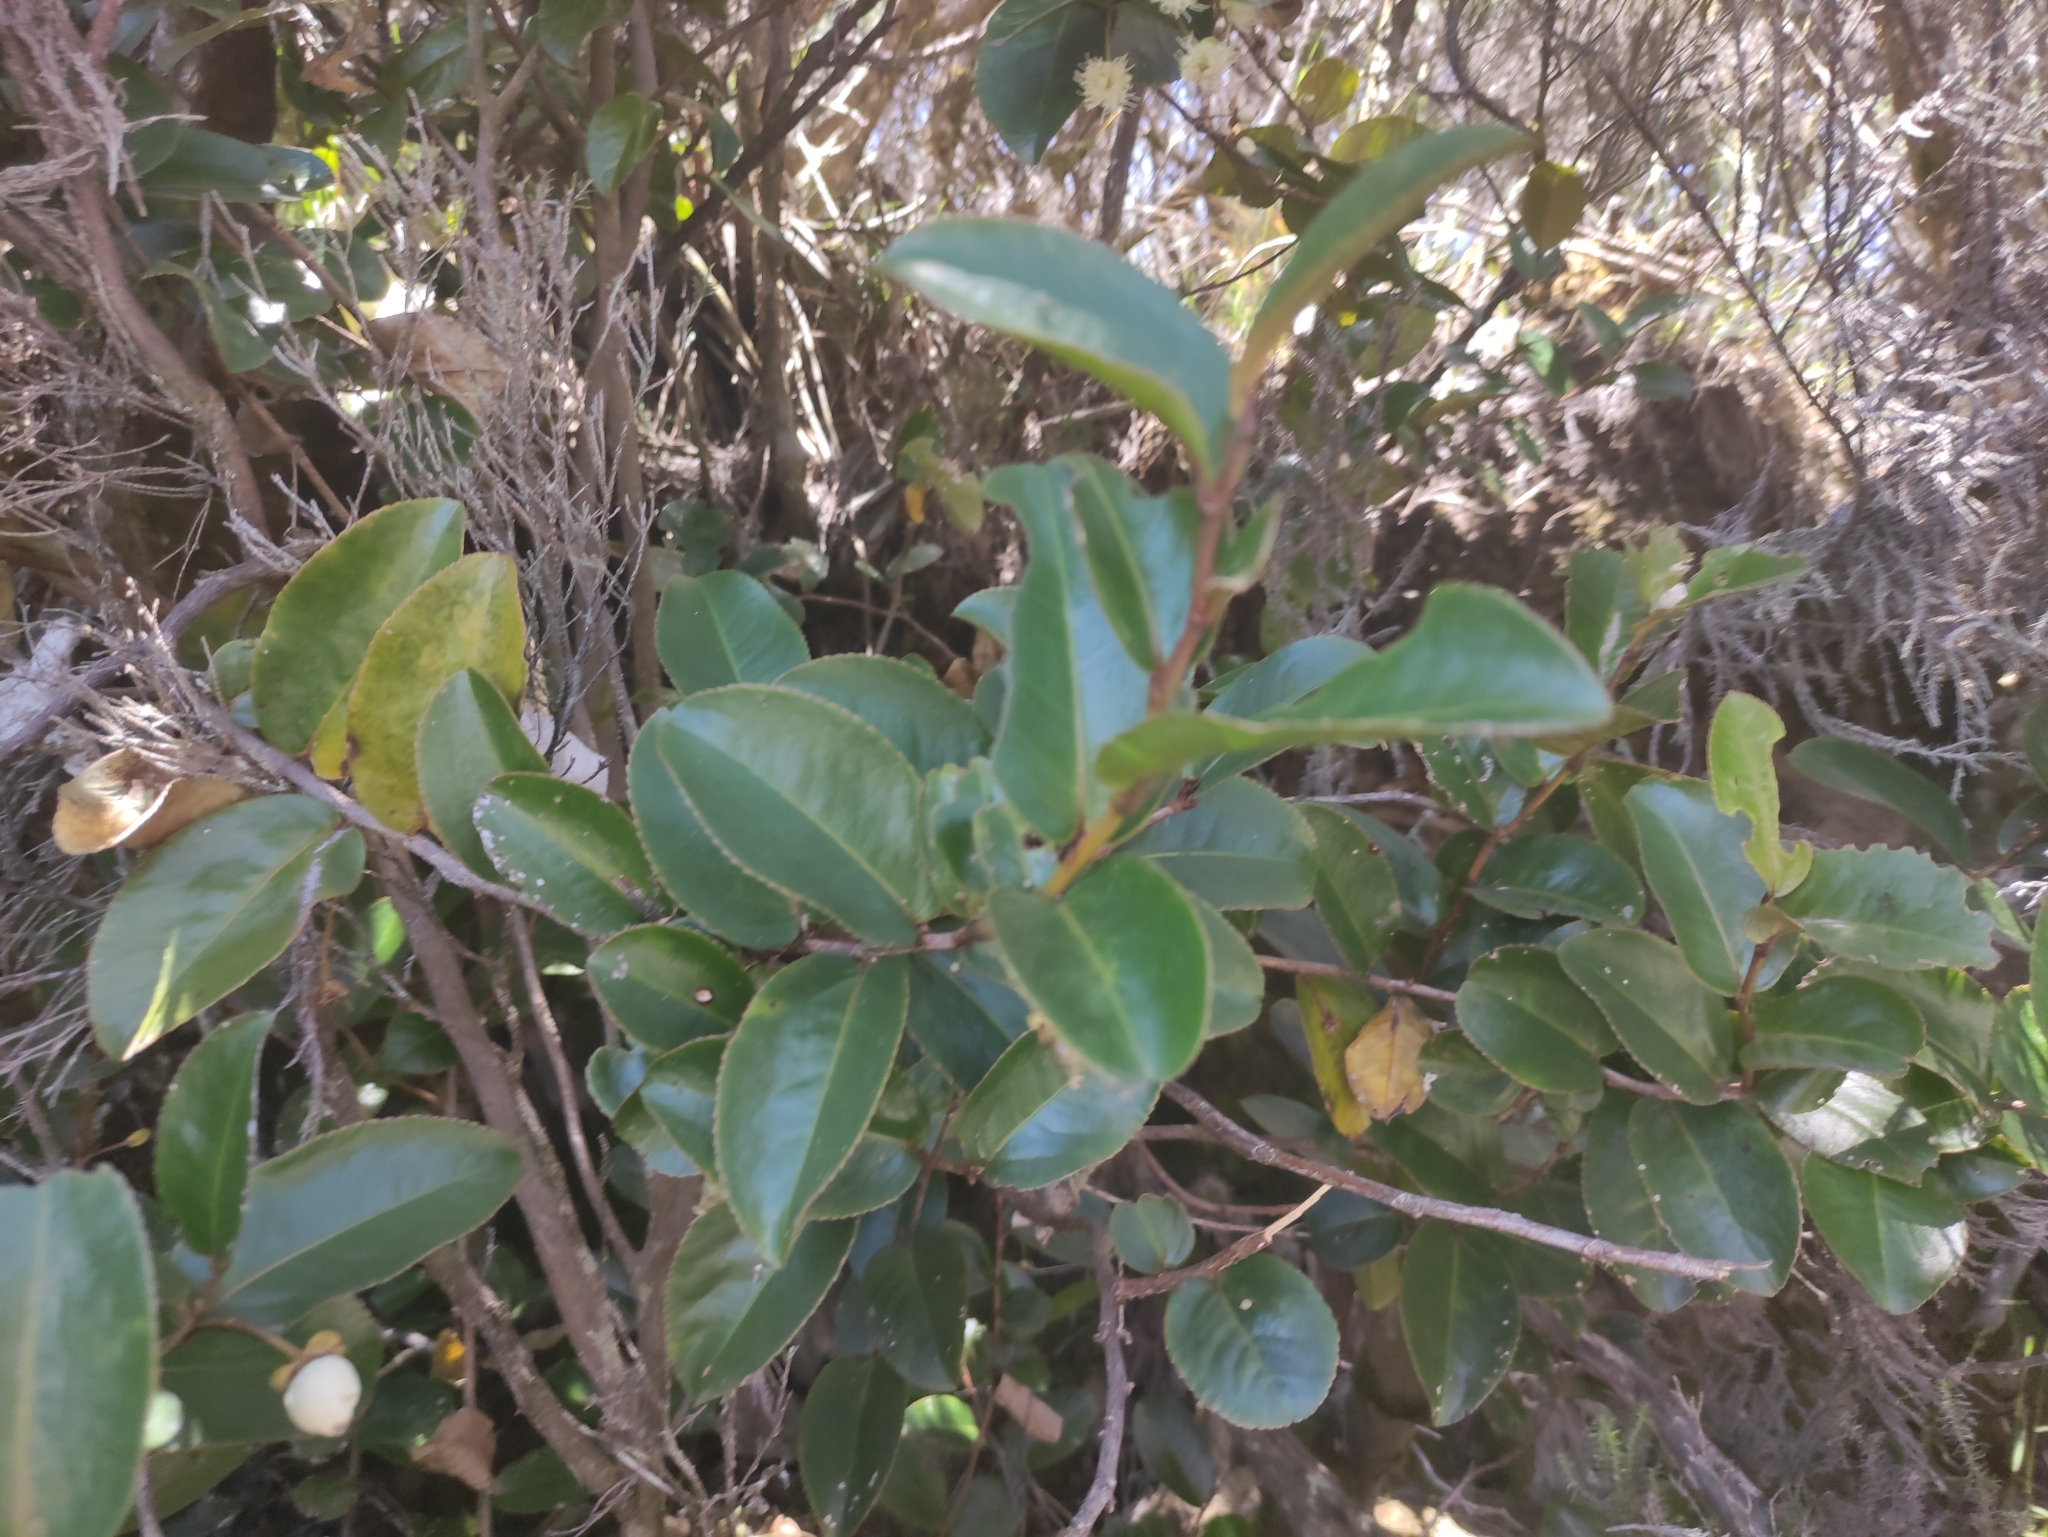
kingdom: Plantae
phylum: Tracheophyta
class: Magnoliopsida
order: Crossosomatales
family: Aphloiaceae
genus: Aphloia
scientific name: Aphloia theiformis
